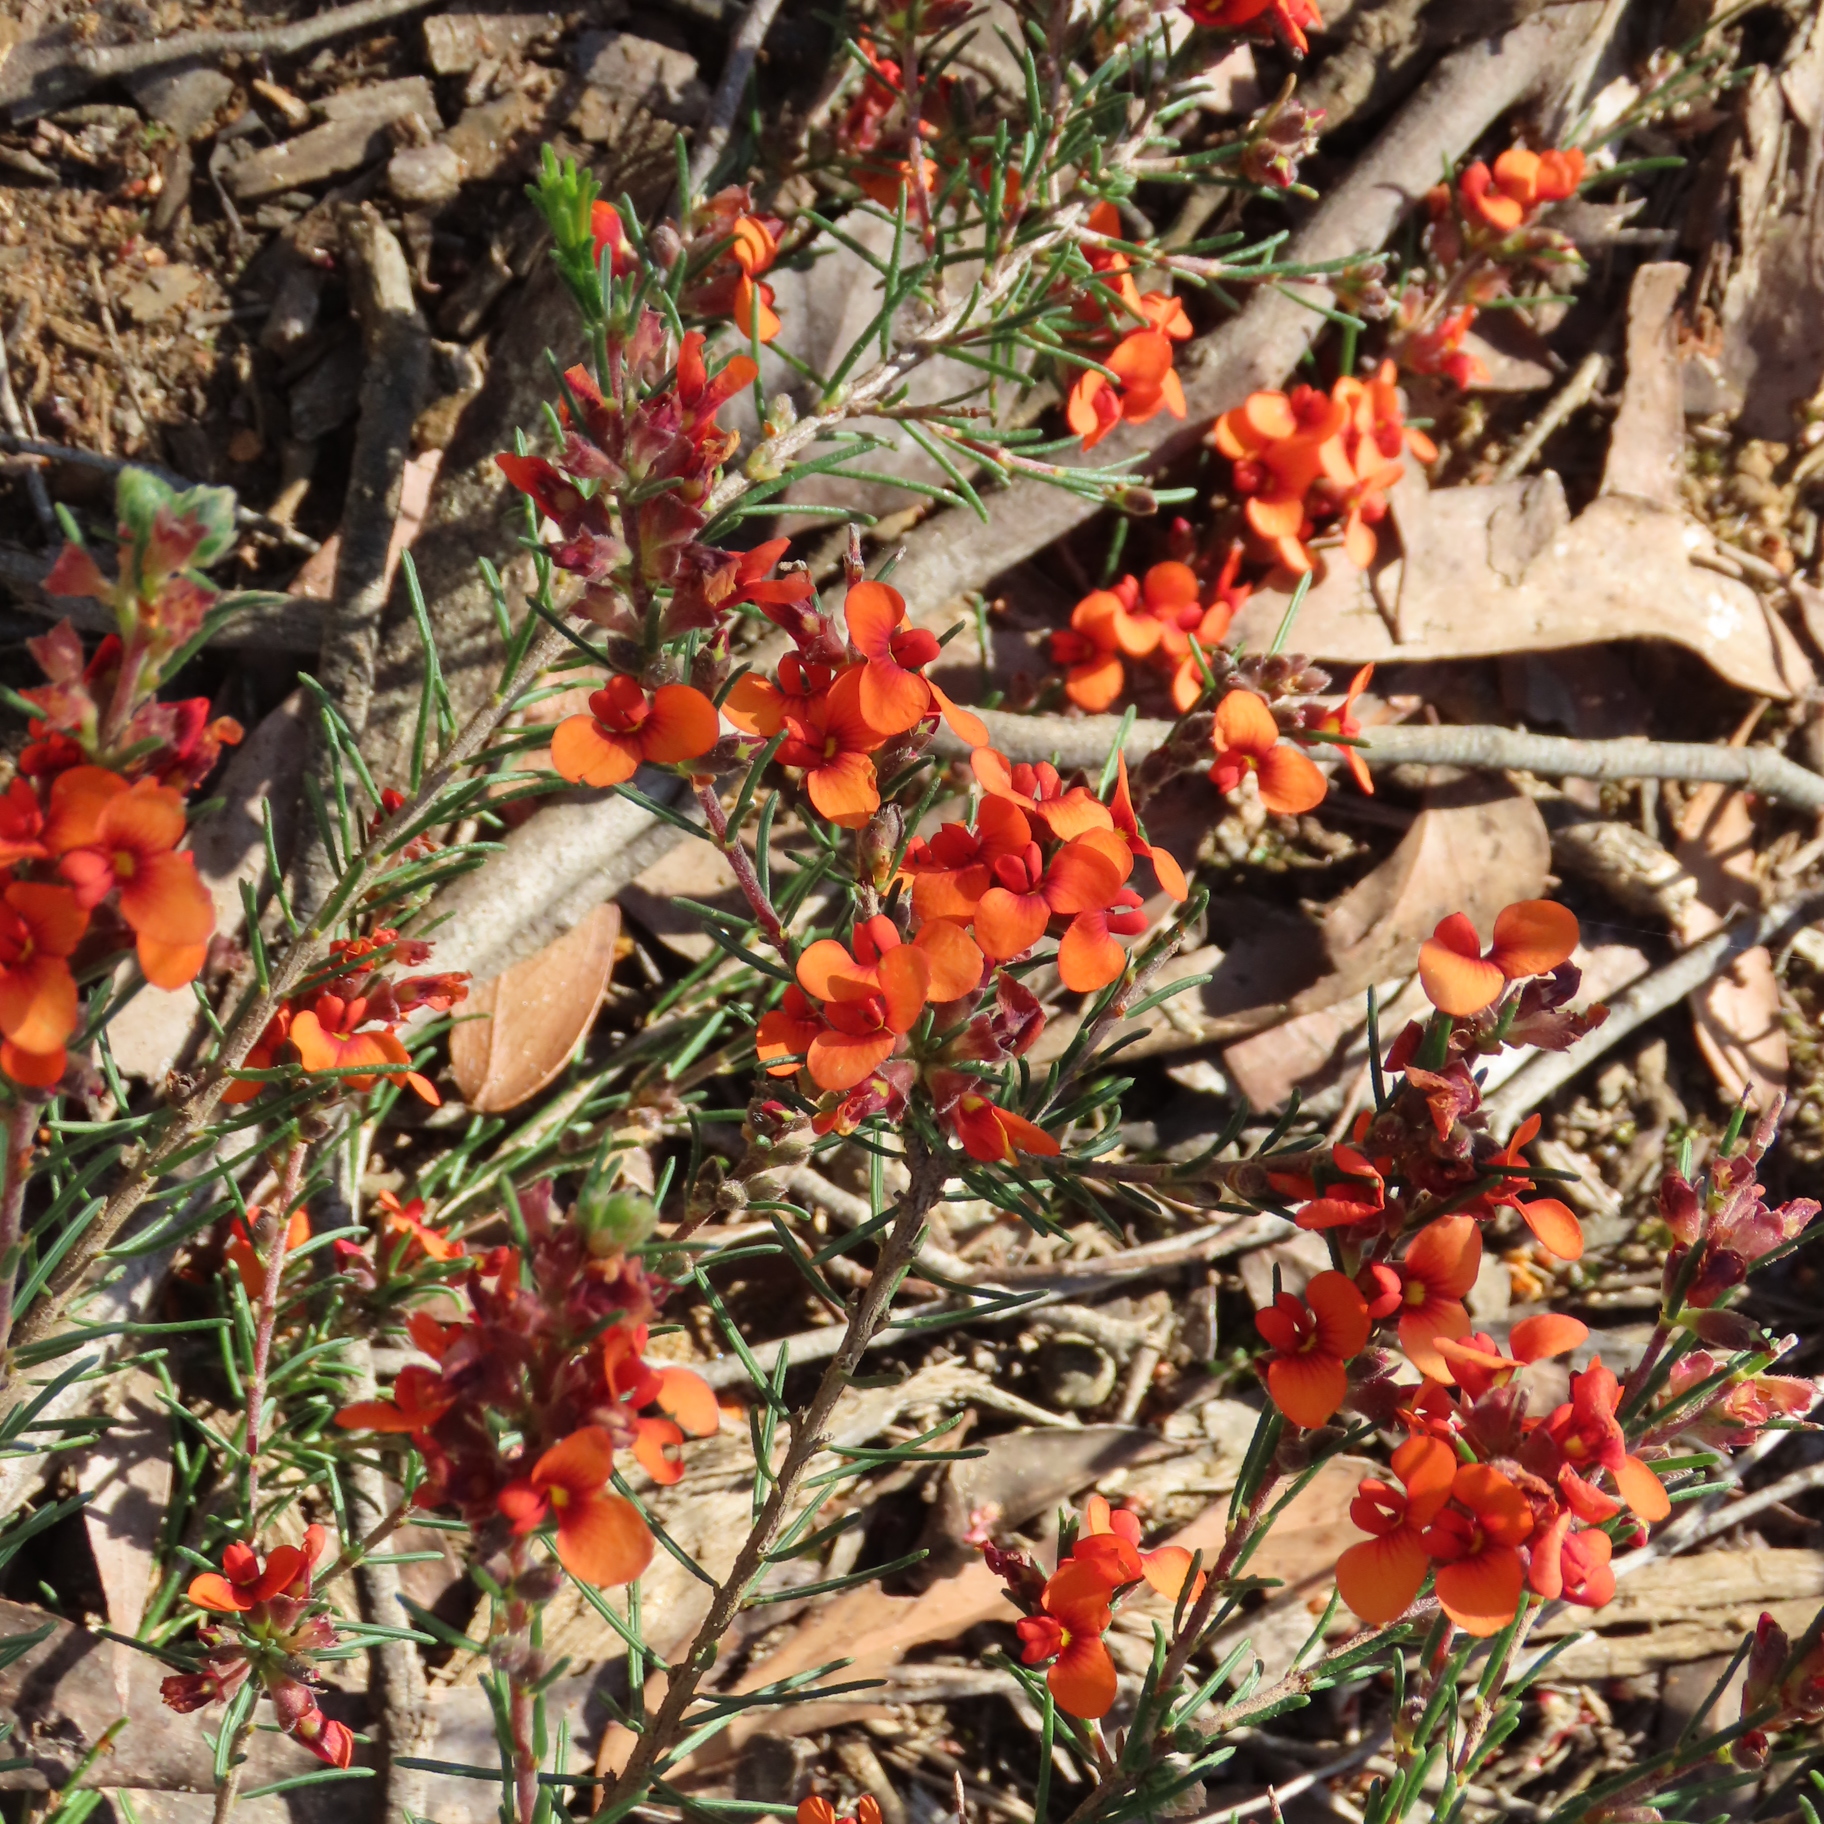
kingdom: Plantae
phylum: Tracheophyta
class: Magnoliopsida
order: Fabales
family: Fabaceae
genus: Dillwynia
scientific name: Dillwynia sericea
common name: Showy parrot-pea
